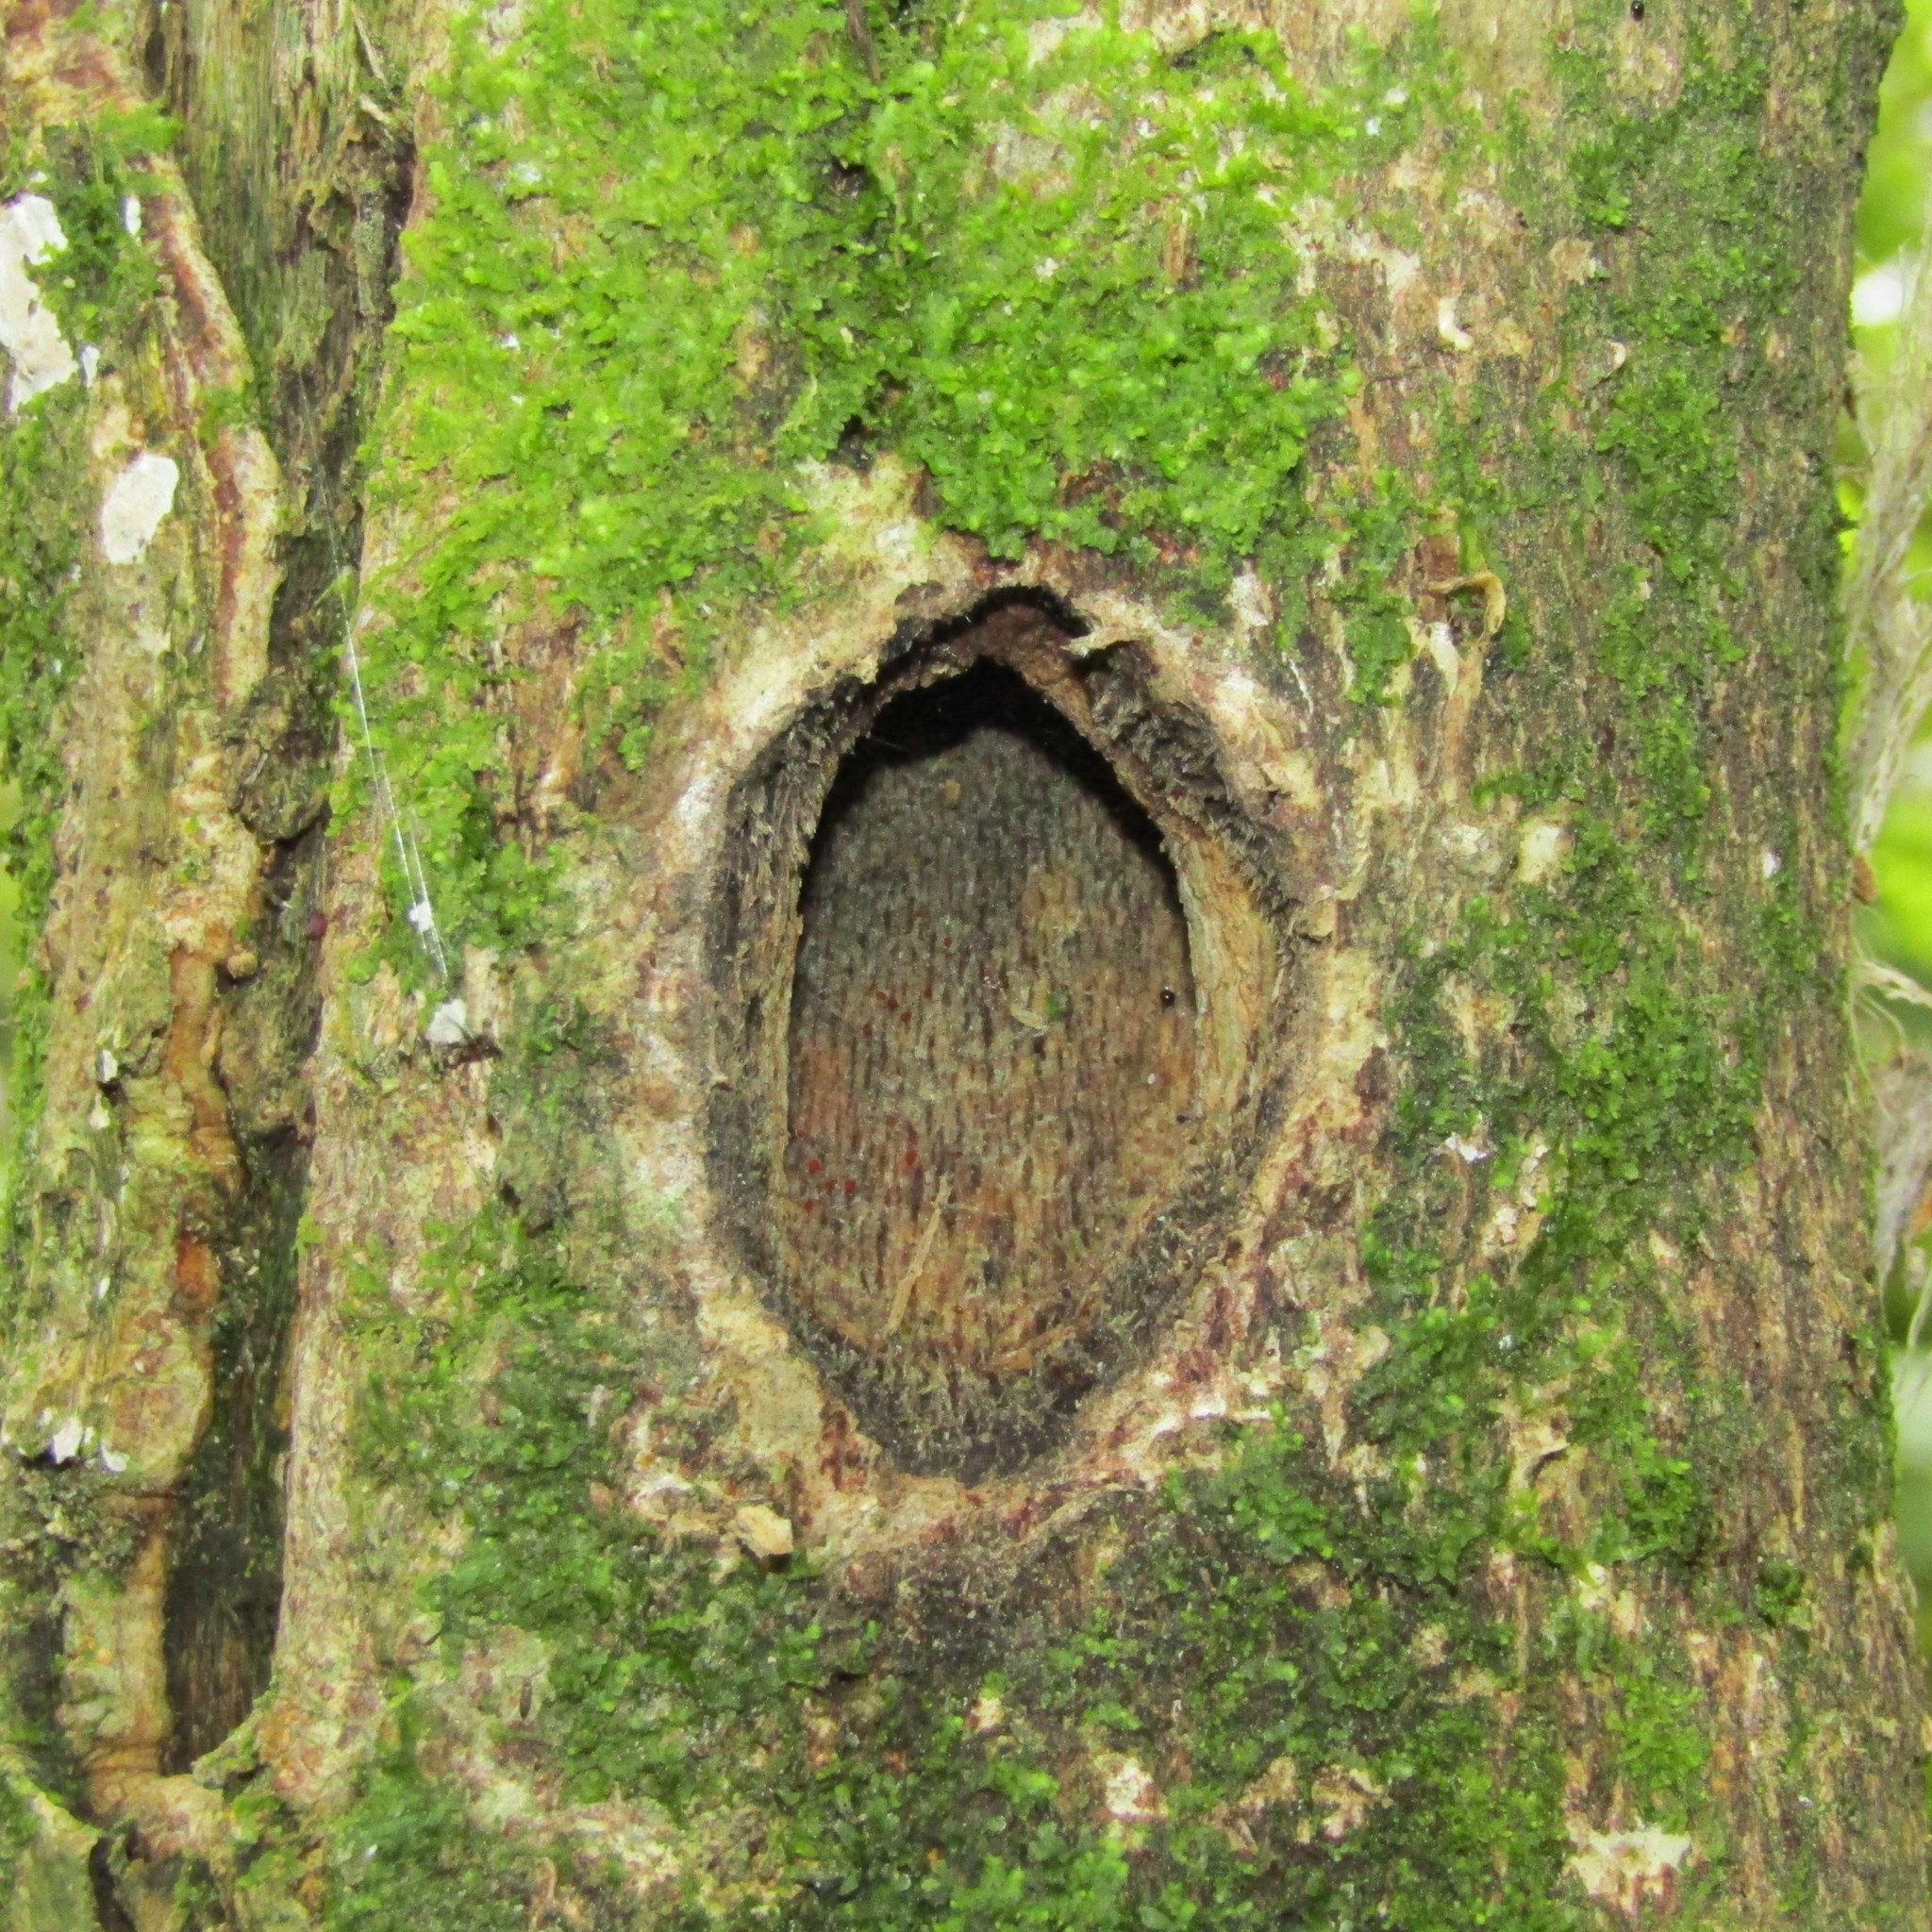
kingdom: Animalia
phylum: Arthropoda
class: Insecta
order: Lepidoptera
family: Hepialidae
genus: Aenetus
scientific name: Aenetus virescens
